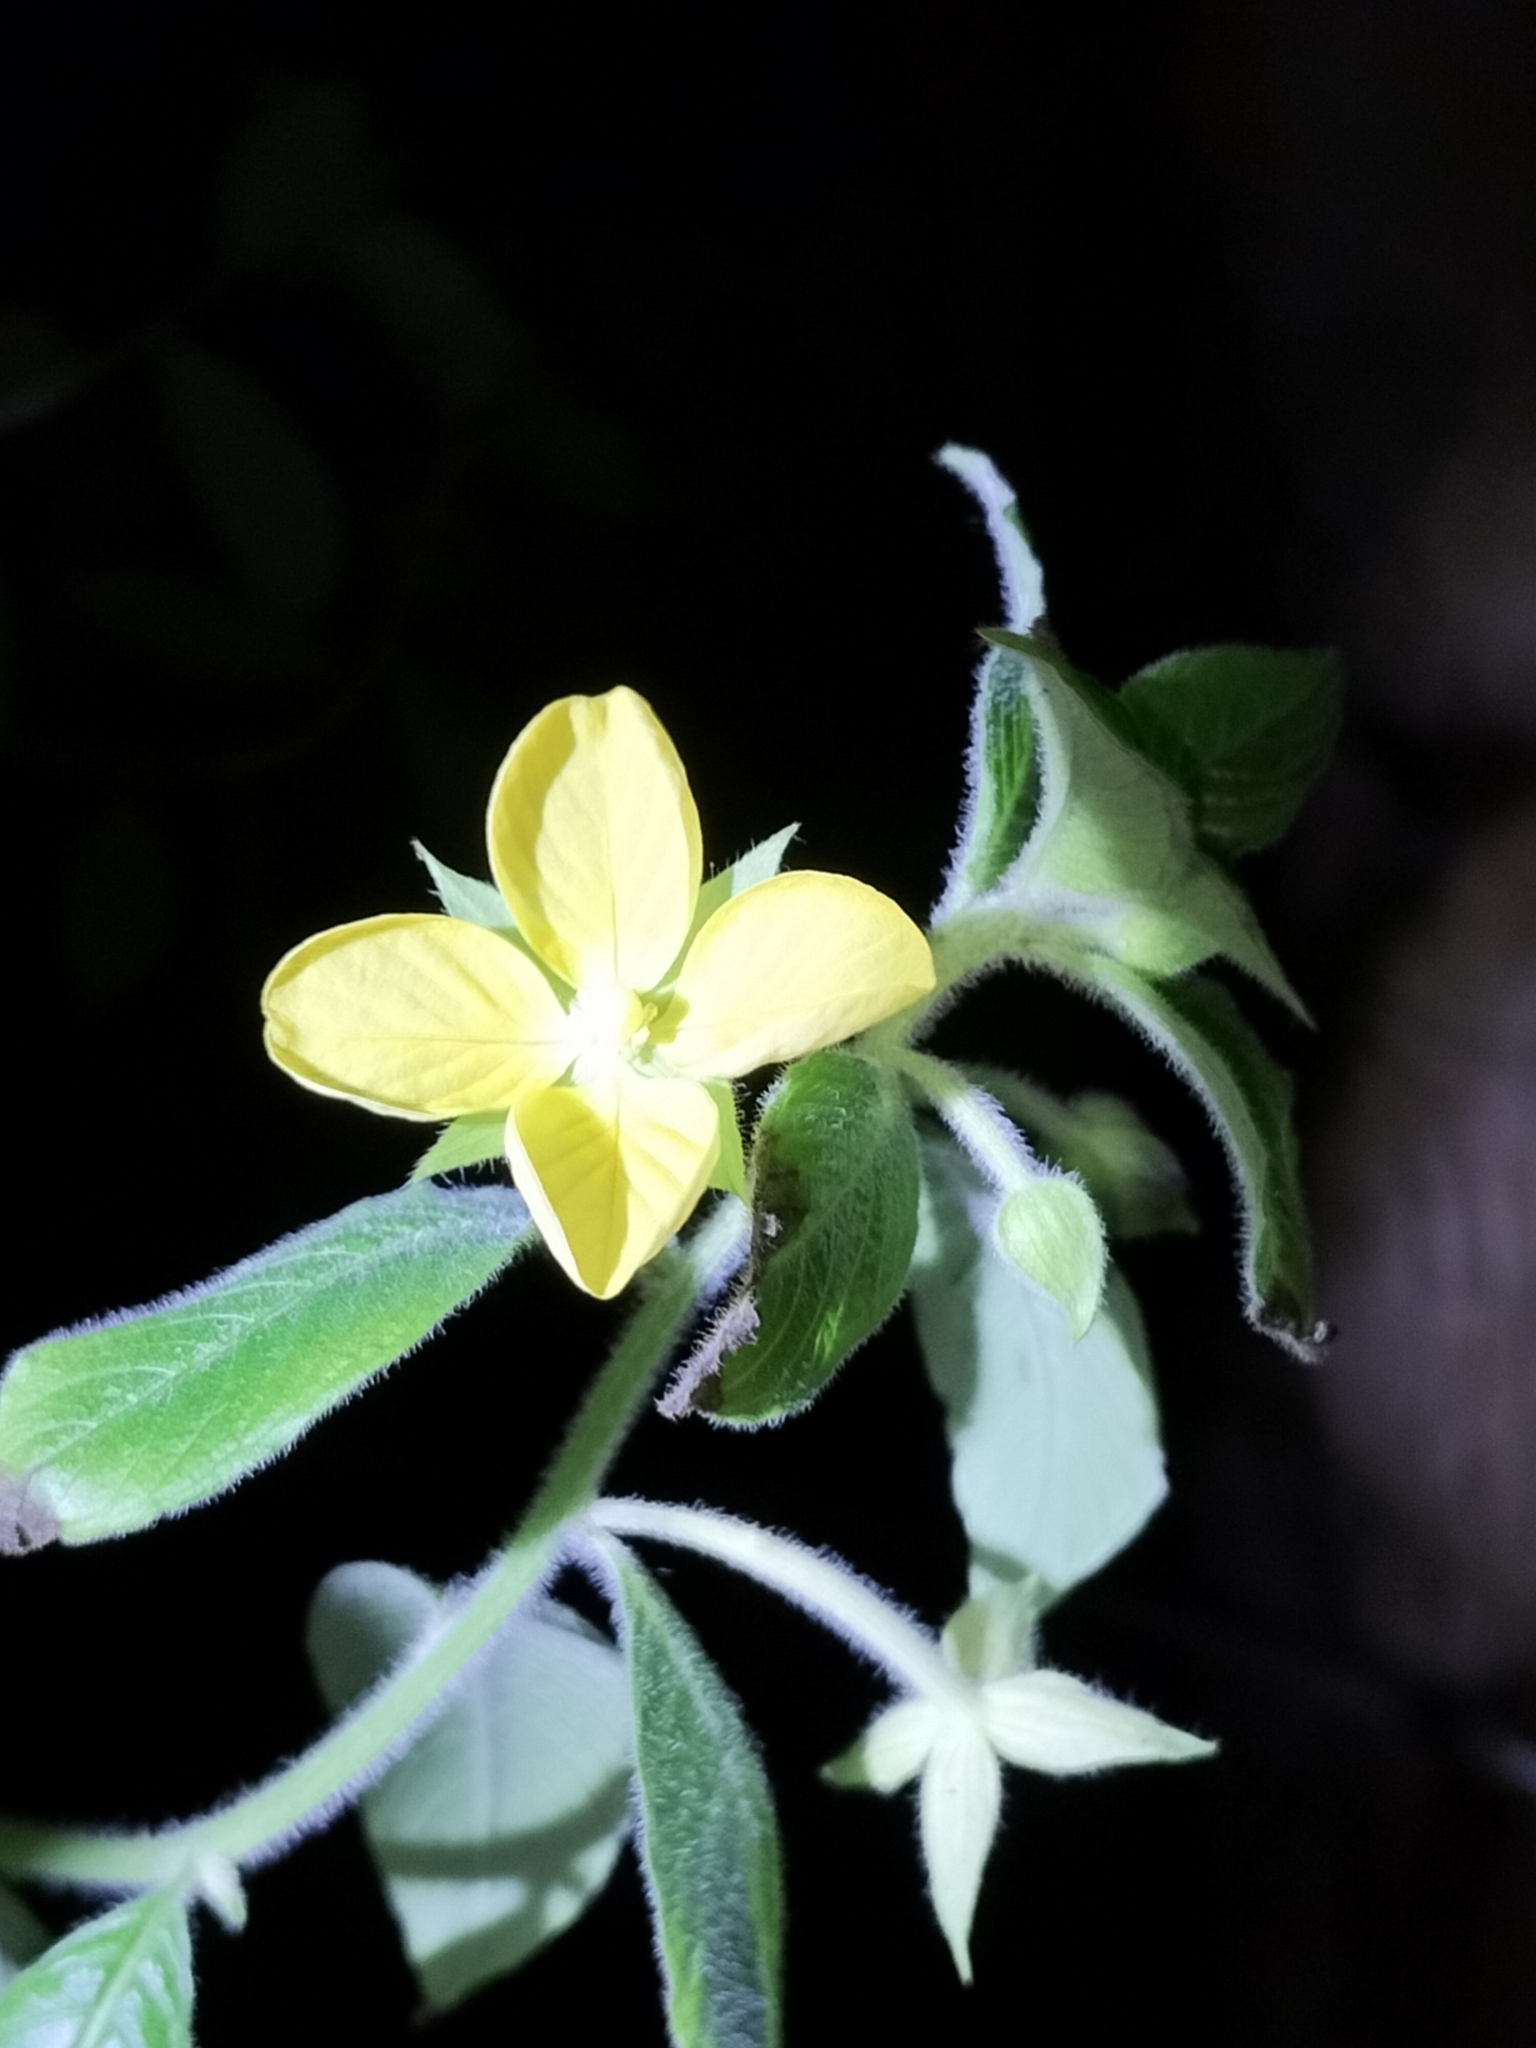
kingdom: Plantae
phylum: Tracheophyta
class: Magnoliopsida
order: Myrtales
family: Onagraceae
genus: Ludwigia
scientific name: Ludwigia octovalvis
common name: Water-primrose
